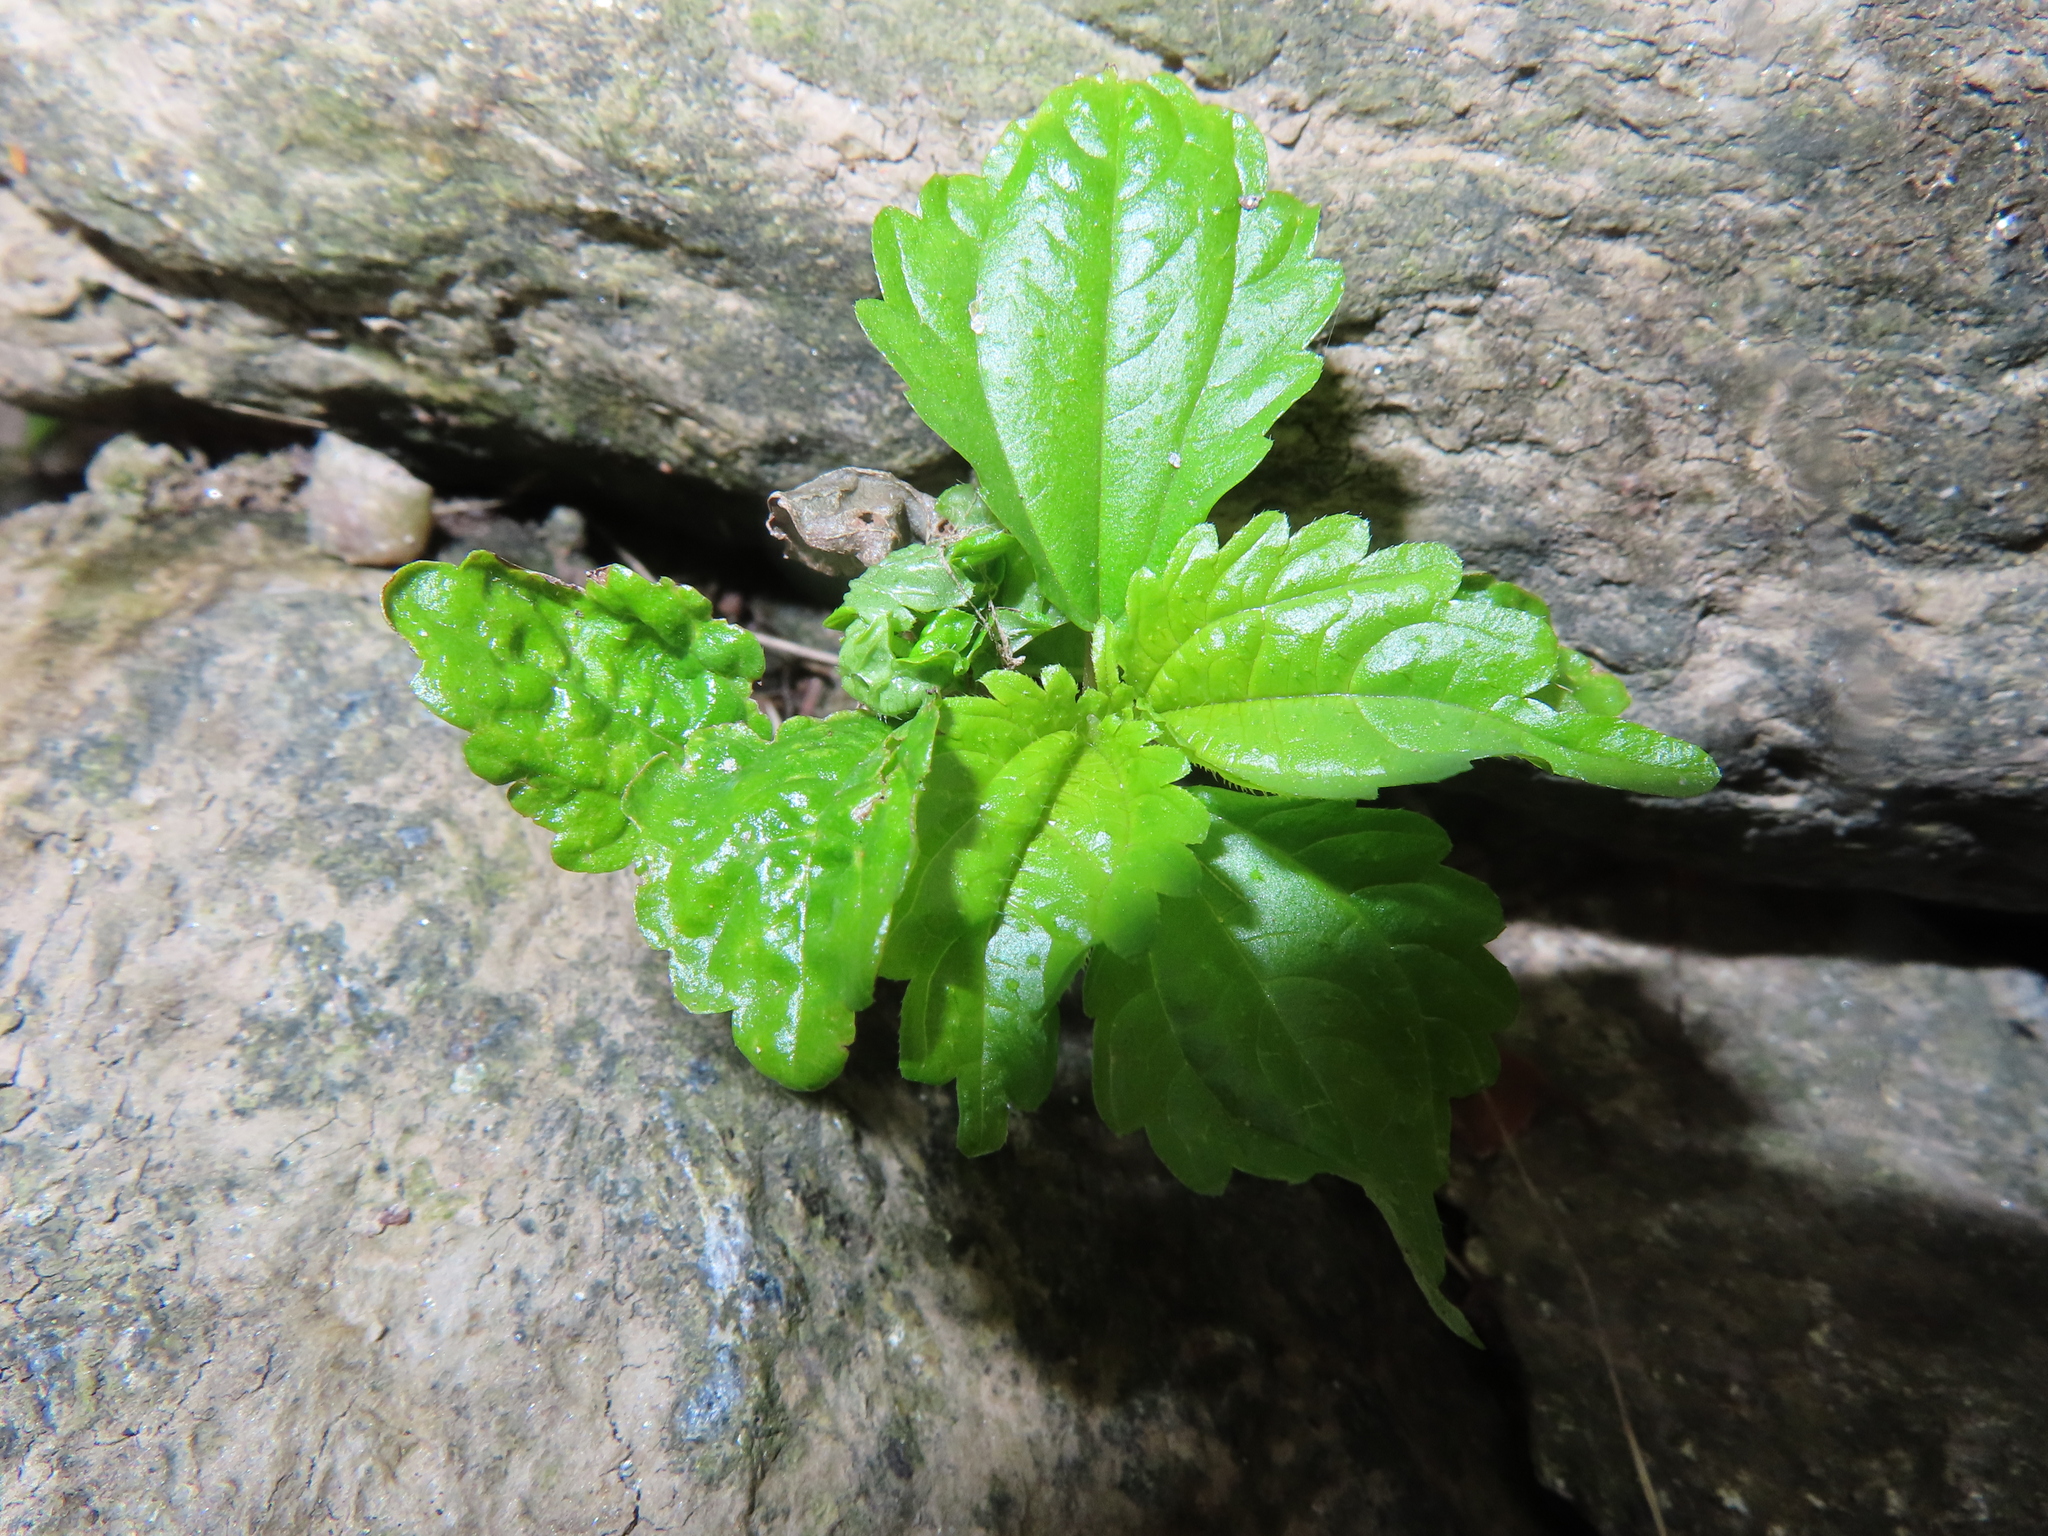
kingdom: Plantae
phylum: Tracheophyta
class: Magnoliopsida
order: Rosales
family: Urticaceae
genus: Pilea
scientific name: Pilea pumila
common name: Clearweed
